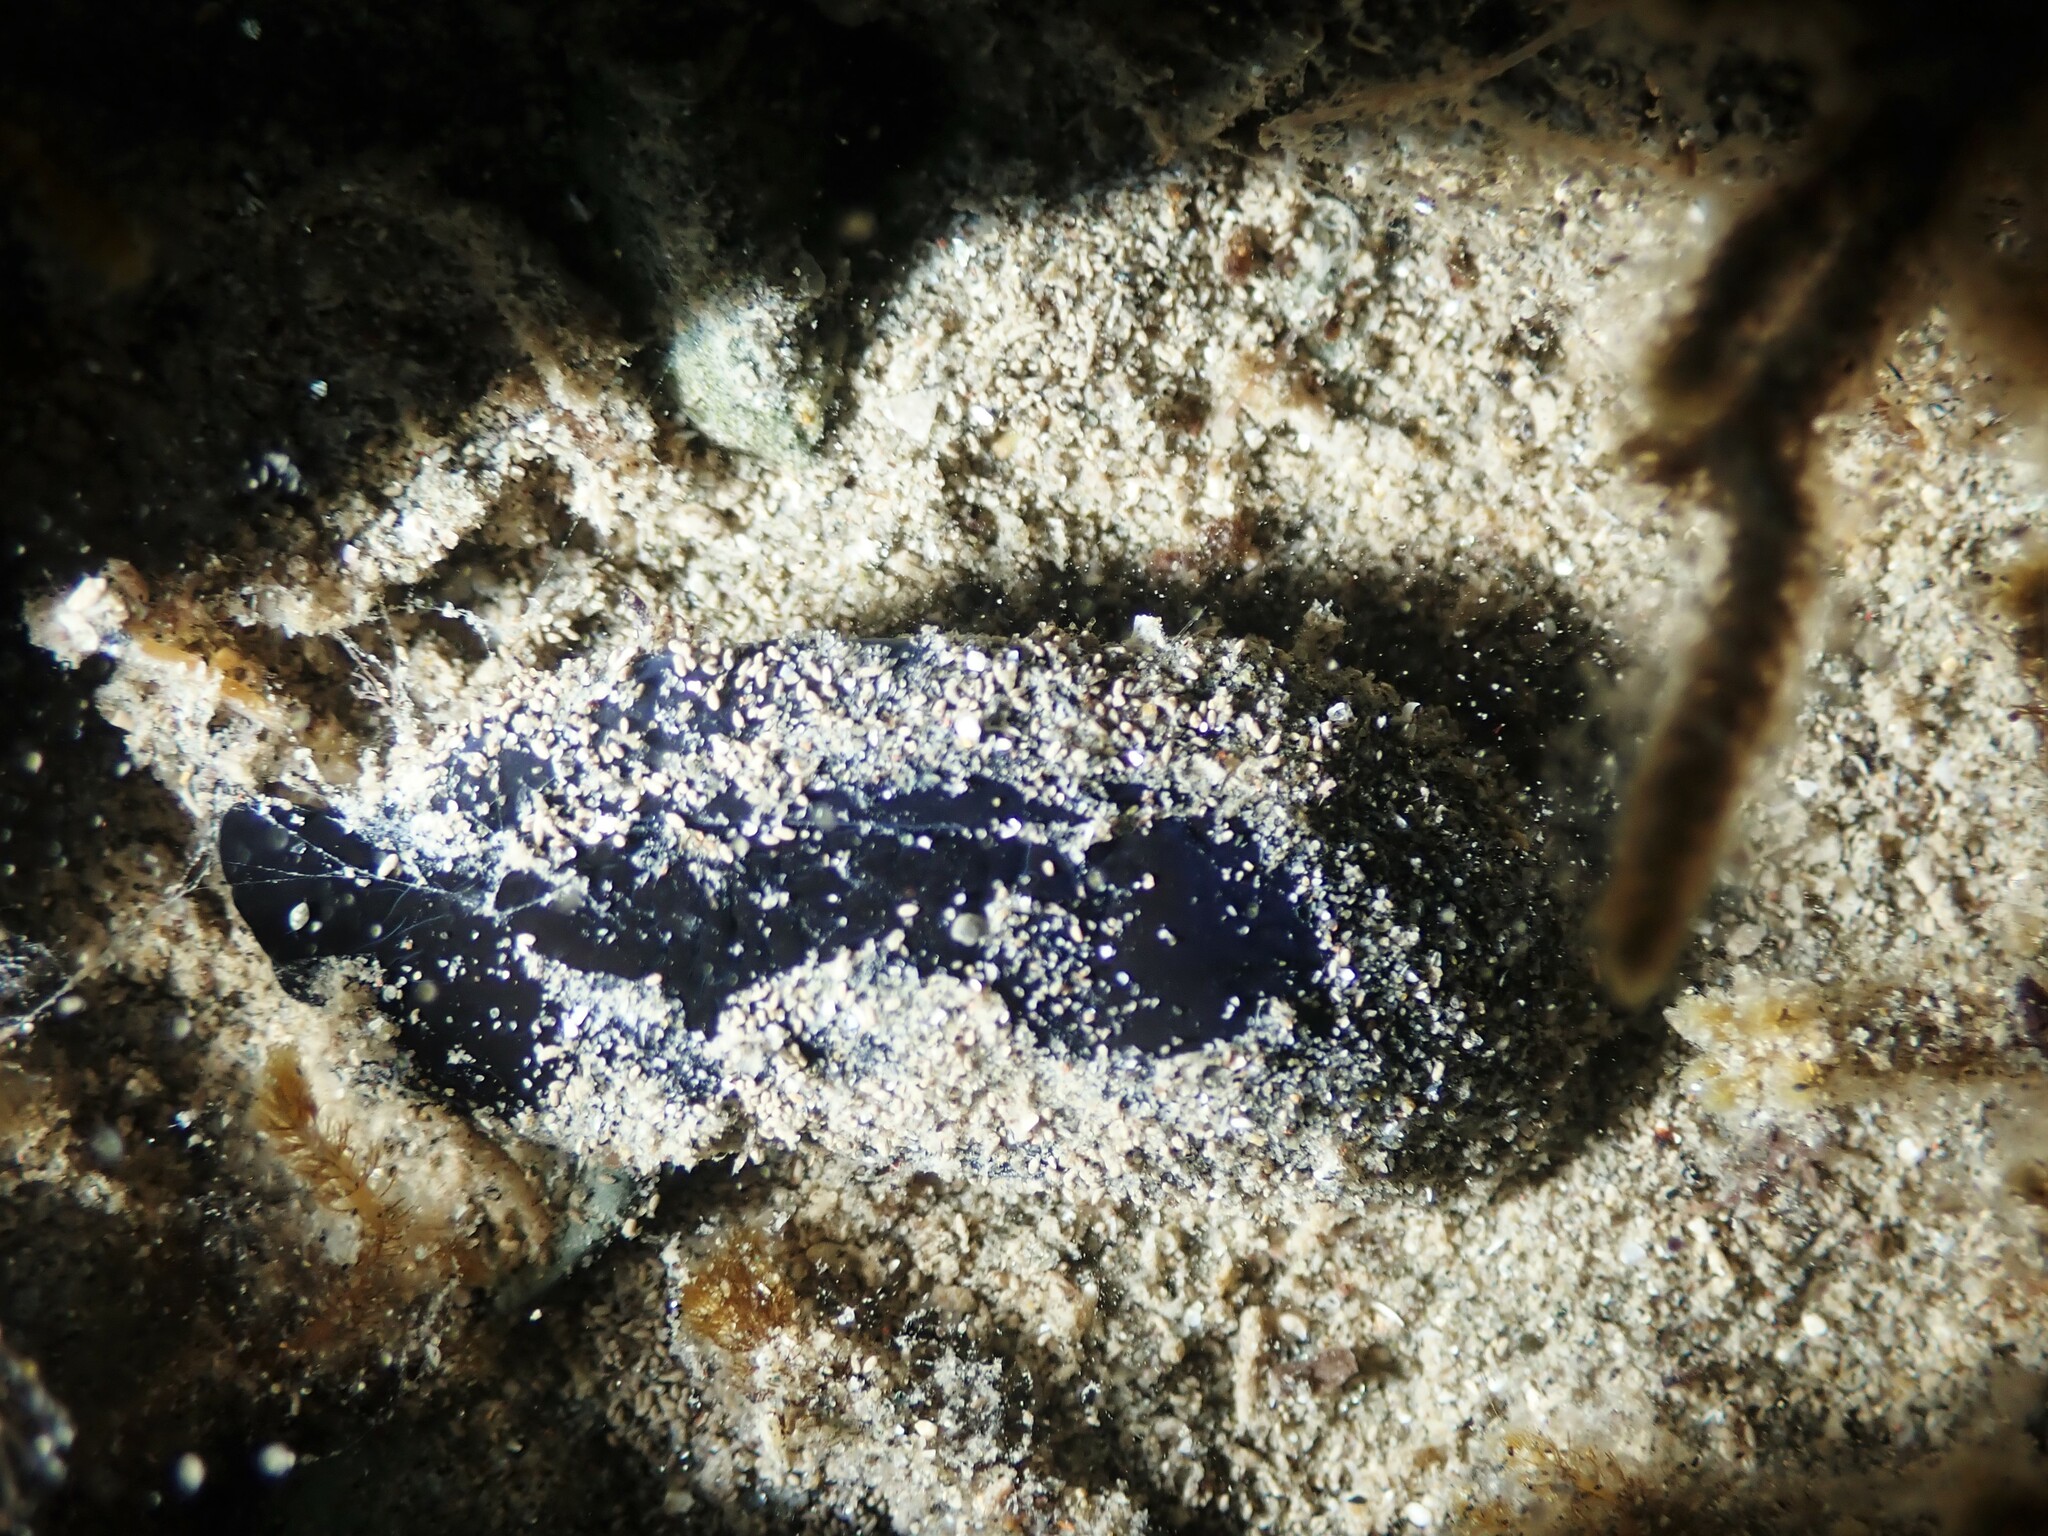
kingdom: Animalia
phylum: Mollusca
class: Gastropoda
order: Cephalaspidea
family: Aglajidae
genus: Melanochlamys
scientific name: Melanochlamys cylindrica
